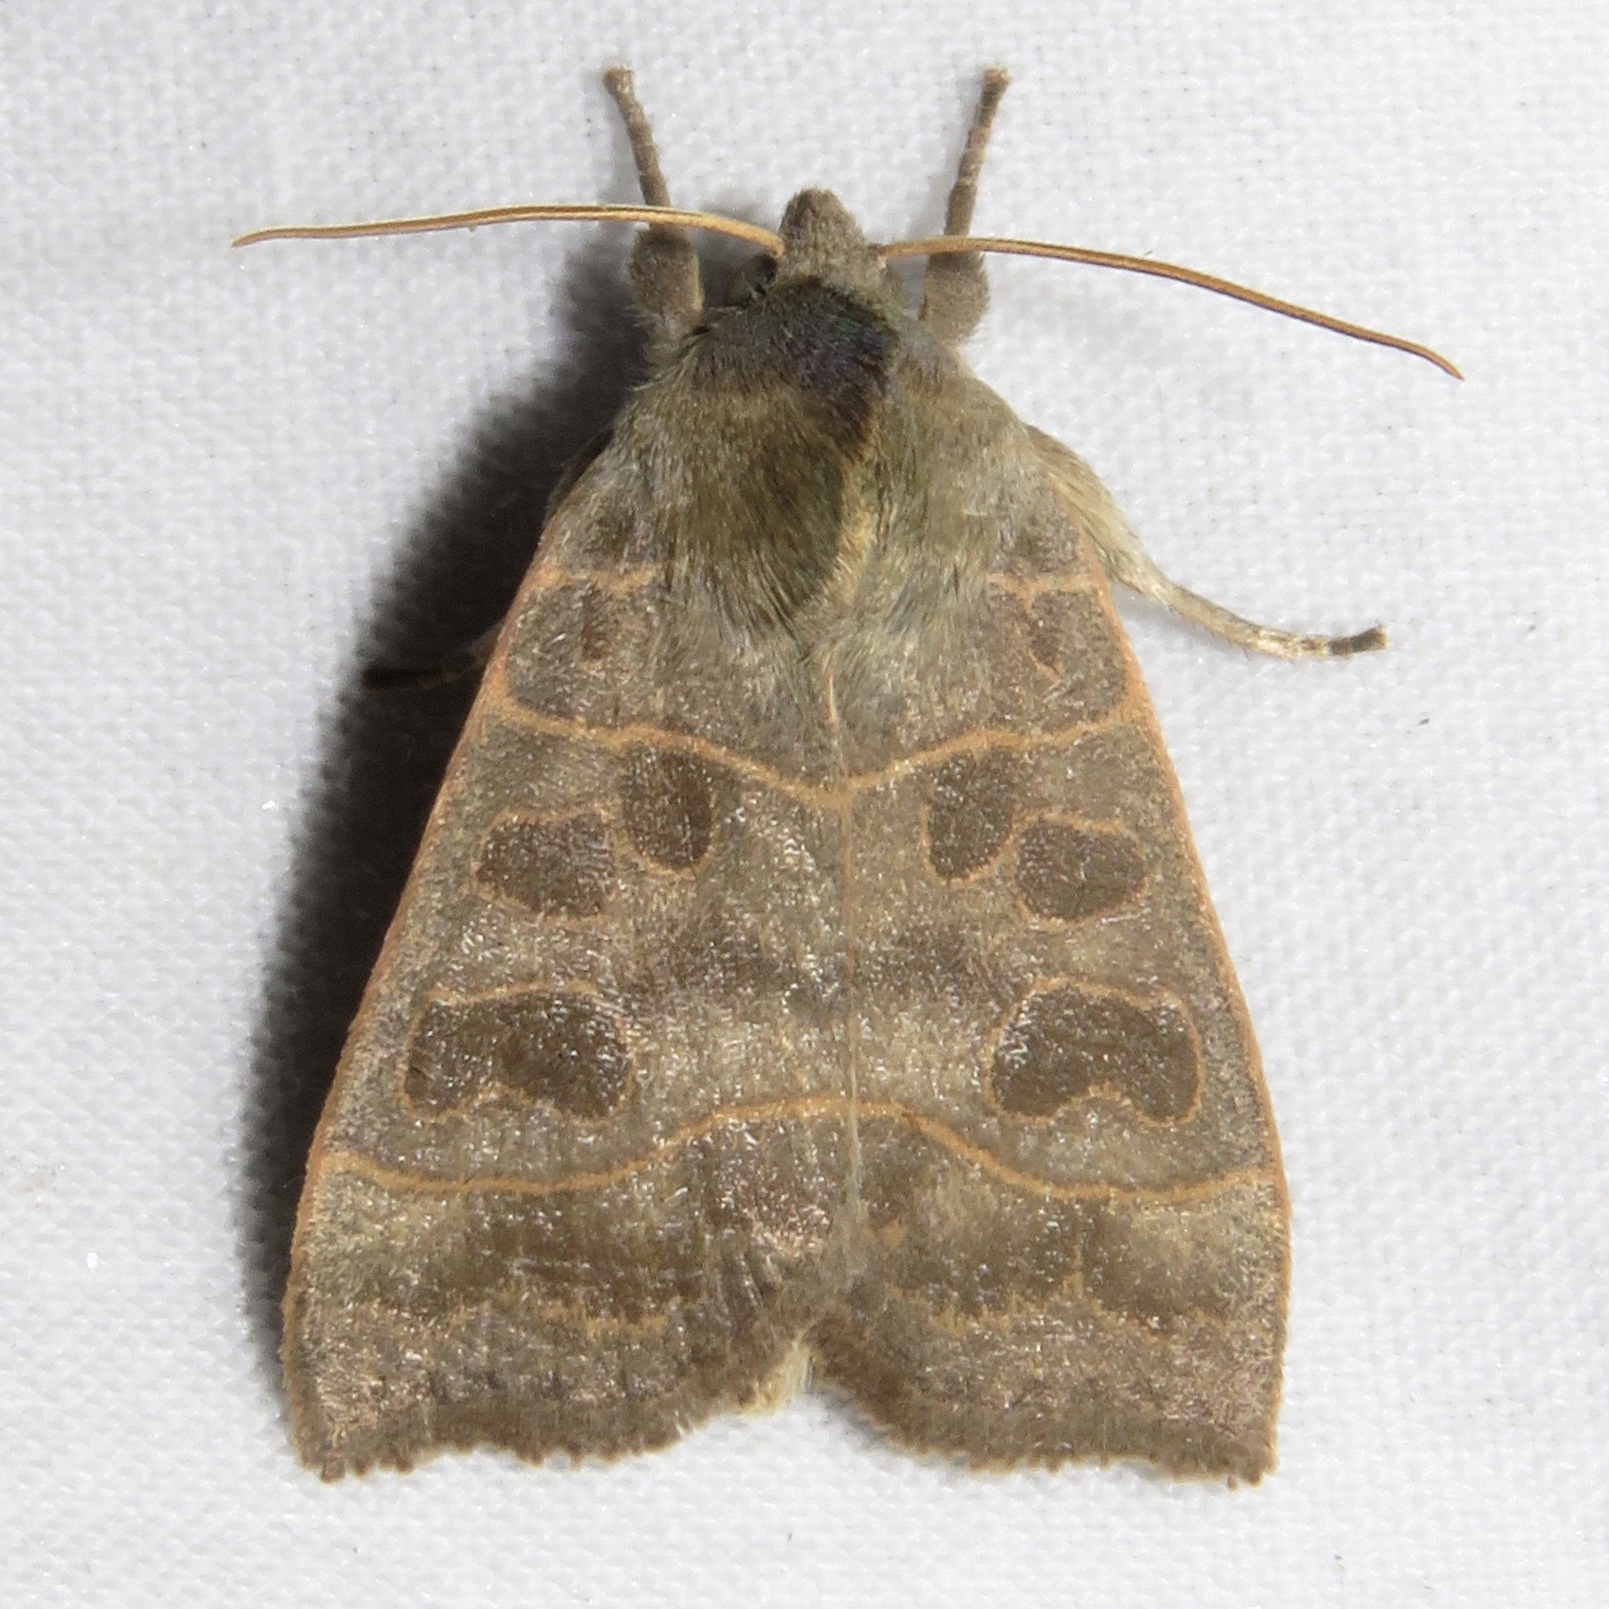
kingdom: Animalia
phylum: Arthropoda
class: Insecta
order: Lepidoptera
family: Noctuidae
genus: Ipimorpha
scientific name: Ipimorpha pleonectusa
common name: Even-lined sallow
